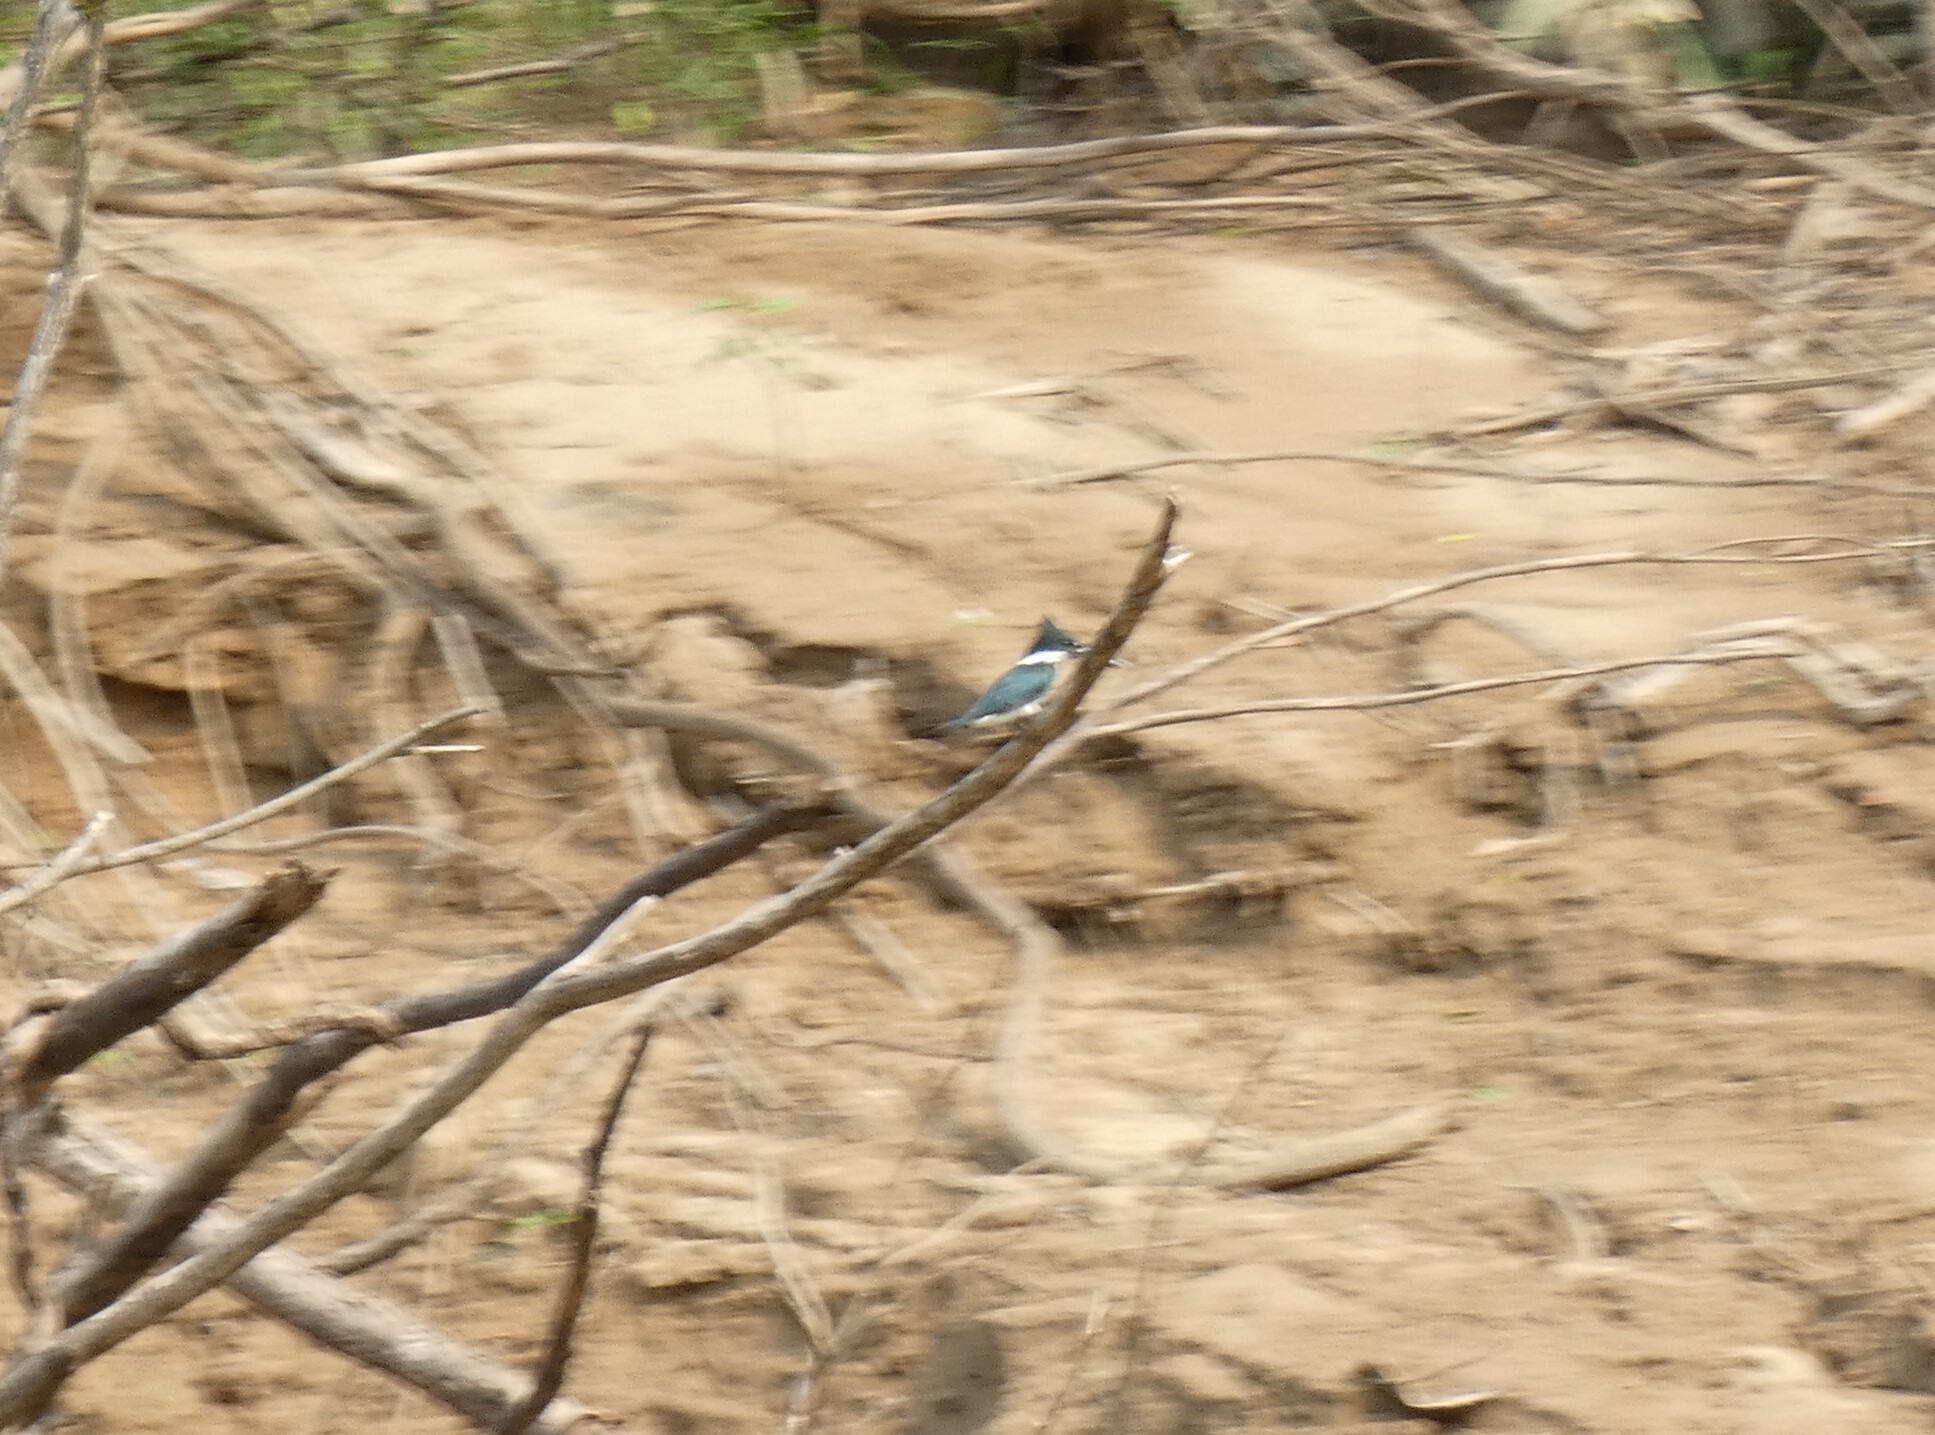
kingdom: Animalia
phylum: Chordata
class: Aves
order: Coraciiformes
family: Alcedinidae
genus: Chloroceryle
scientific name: Chloroceryle amazona
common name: Amazon kingfisher
